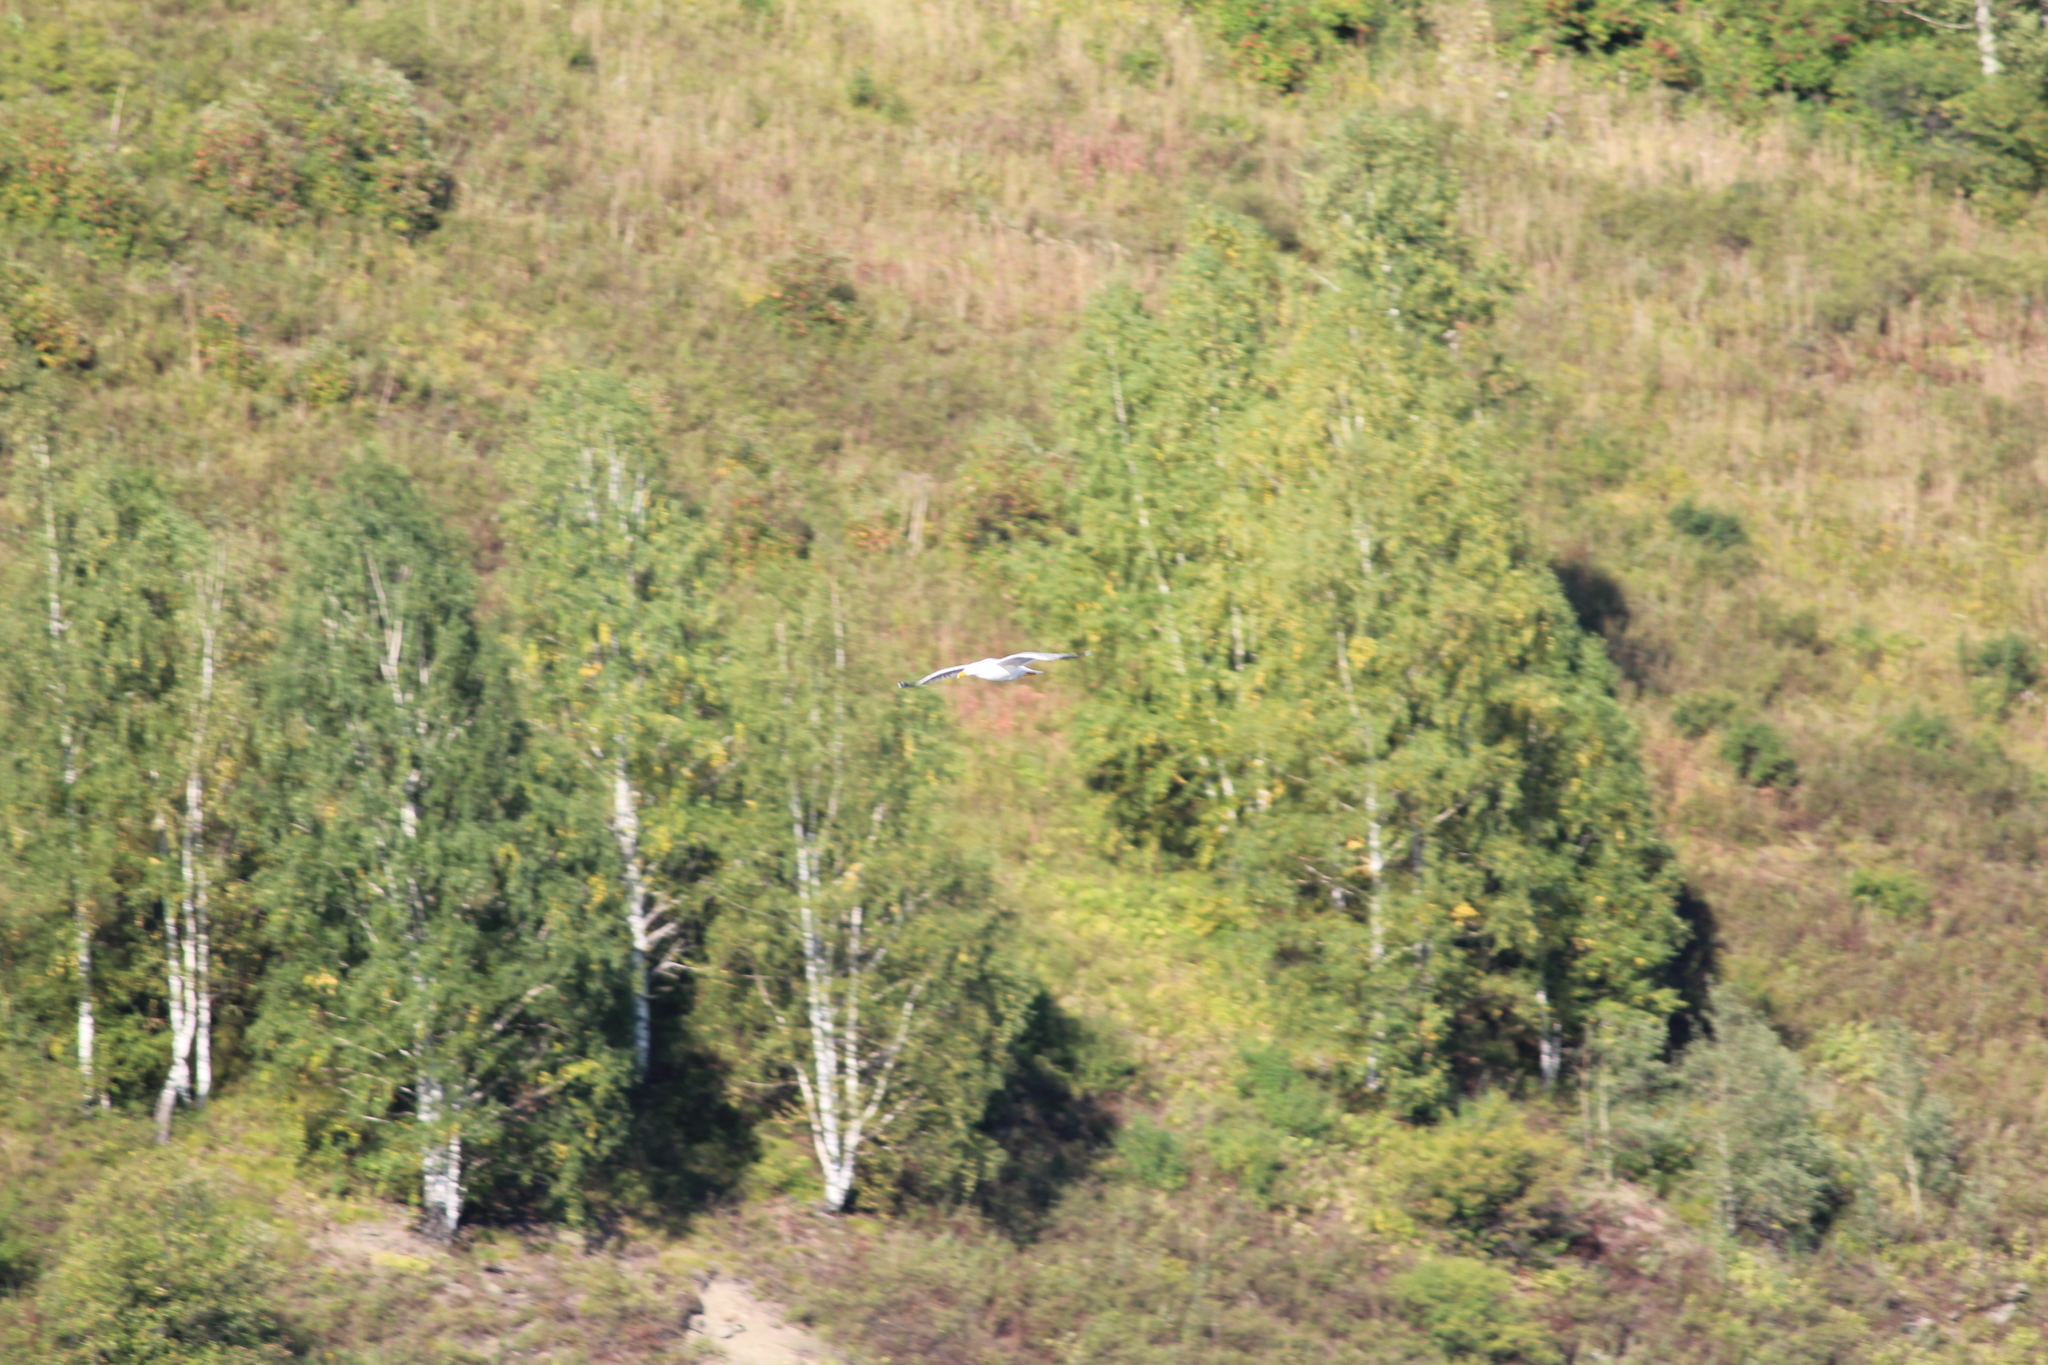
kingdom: Animalia
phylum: Chordata
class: Aves
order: Charadriiformes
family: Laridae
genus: Larus
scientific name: Larus fuscus
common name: Lesser black-backed gull
